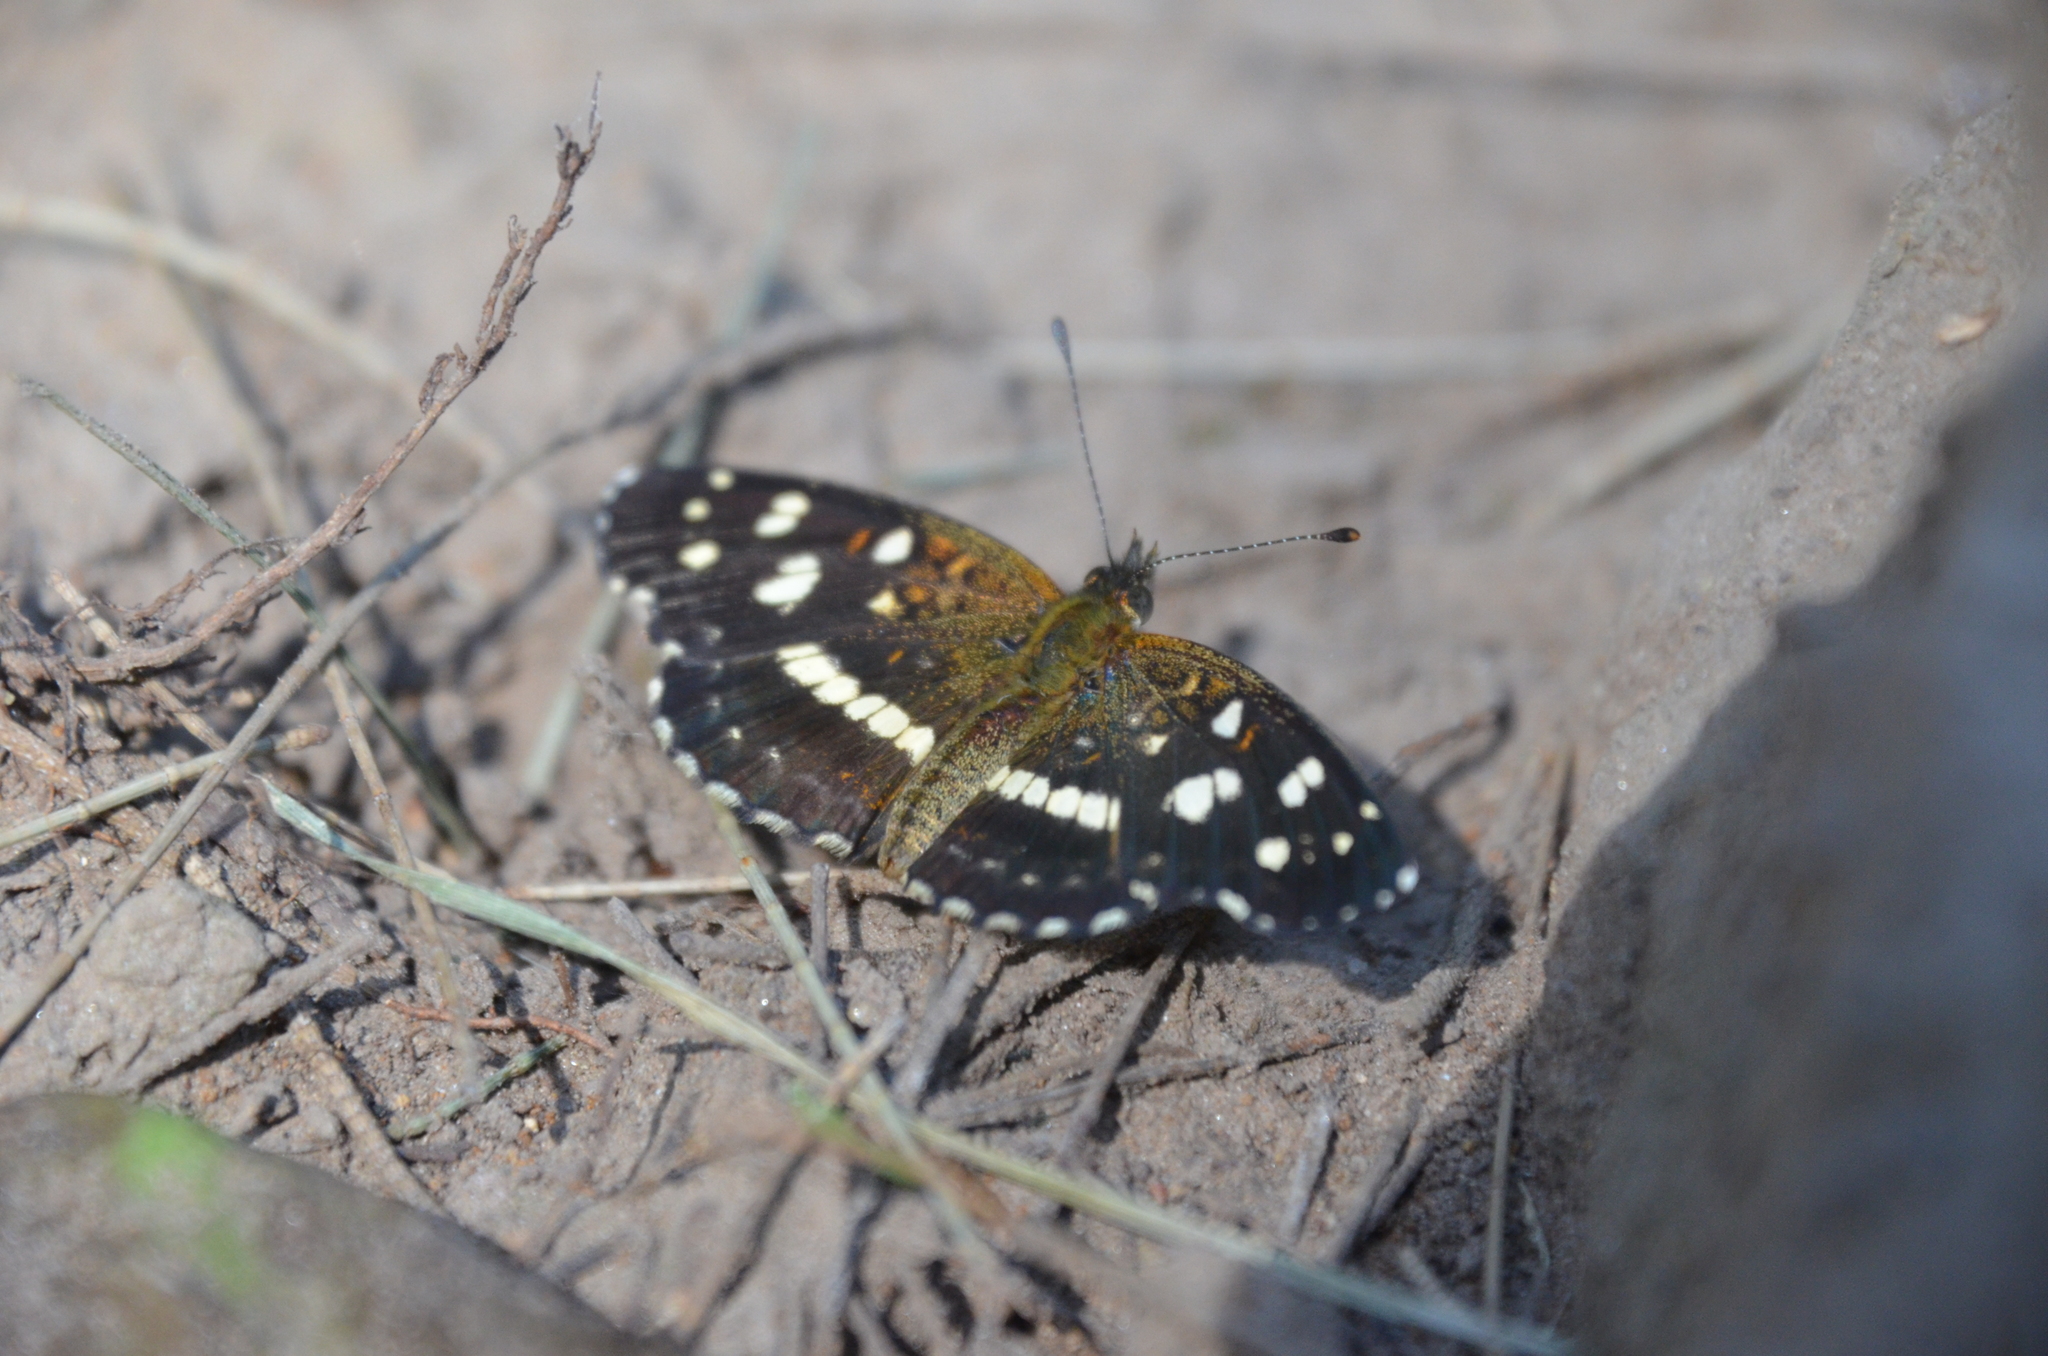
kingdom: Animalia
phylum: Arthropoda
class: Insecta
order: Lepidoptera
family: Nymphalidae
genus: Ortilia
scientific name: Ortilia ithra
